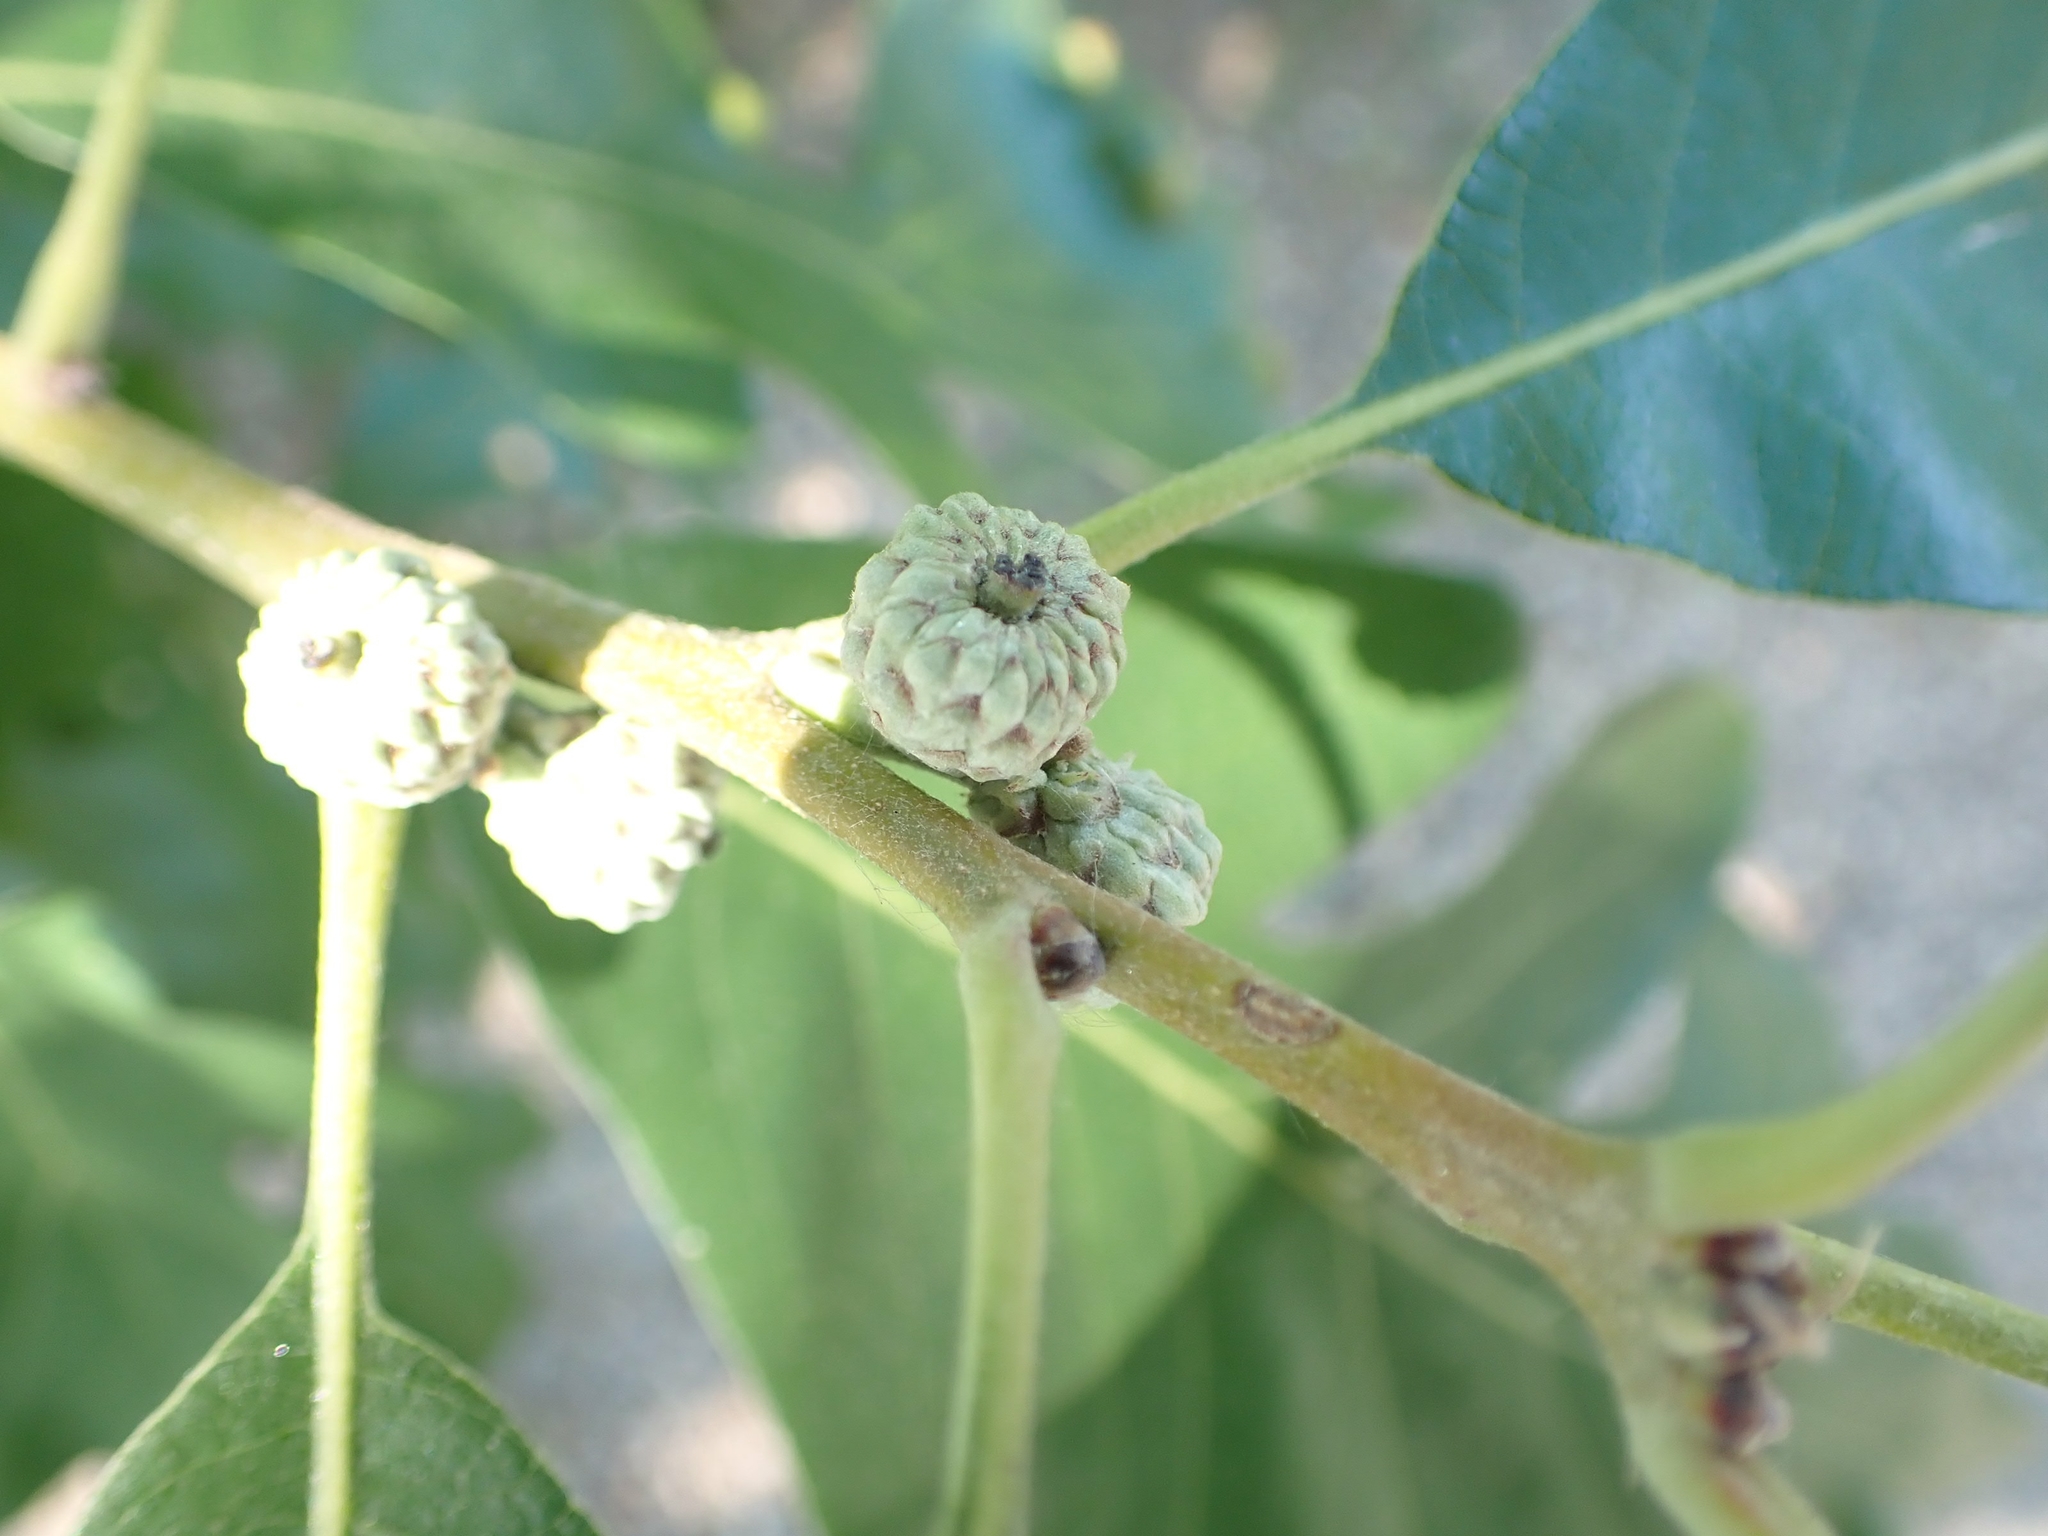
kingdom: Plantae
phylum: Tracheophyta
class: Magnoliopsida
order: Fagales
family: Fagaceae
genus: Quercus
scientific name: Quercus macrocarpa
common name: Bur oak
